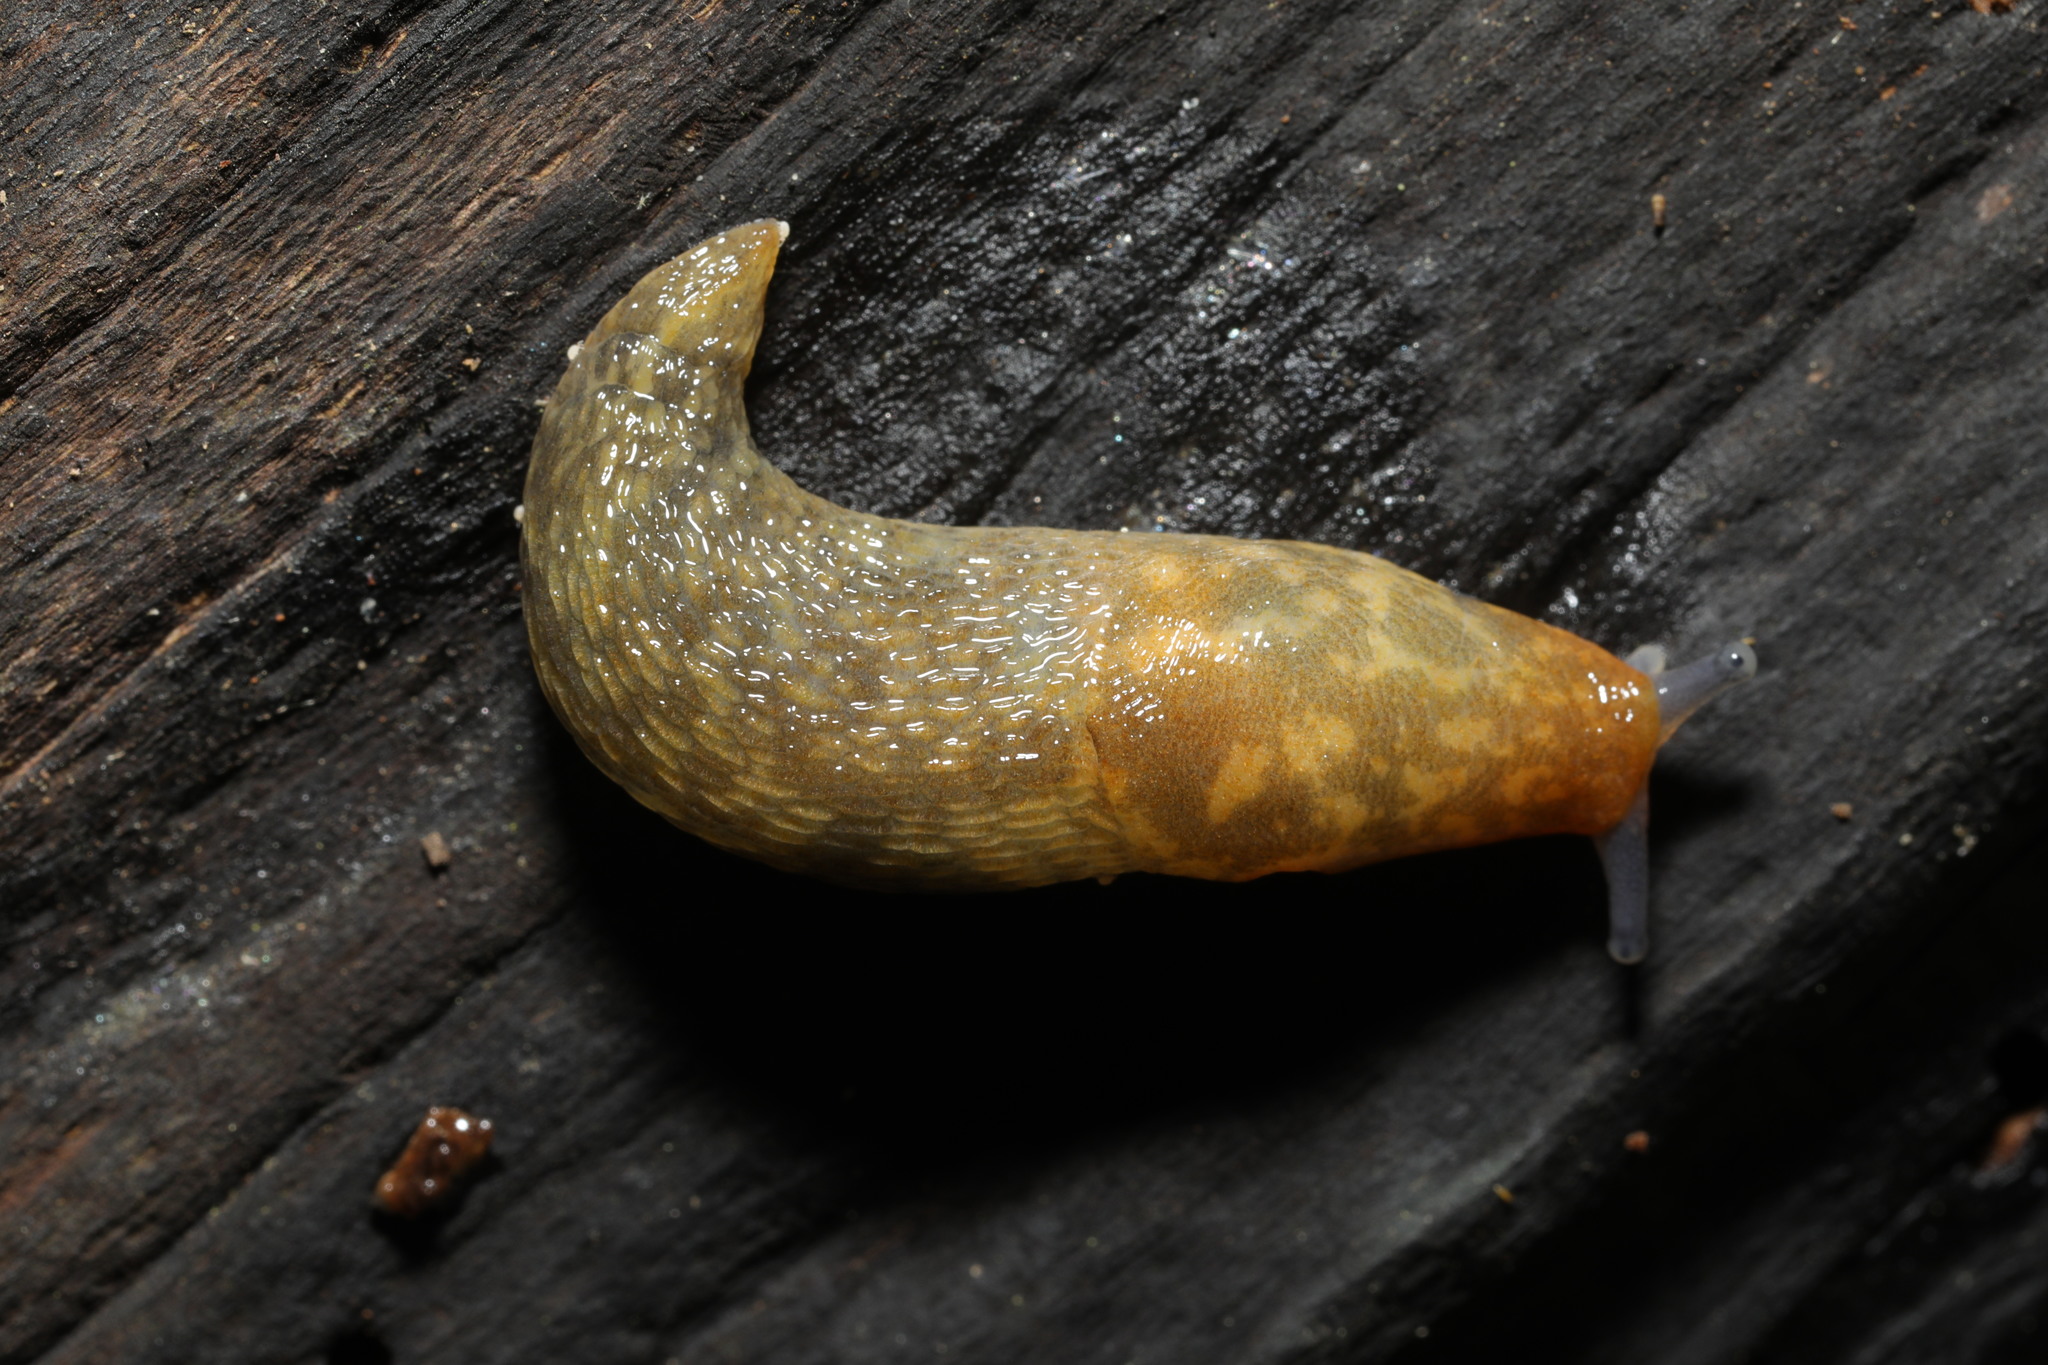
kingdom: Animalia
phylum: Mollusca
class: Gastropoda
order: Stylommatophora
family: Limacidae
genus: Limacus
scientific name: Limacus maculatus
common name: Irish yellow slug
